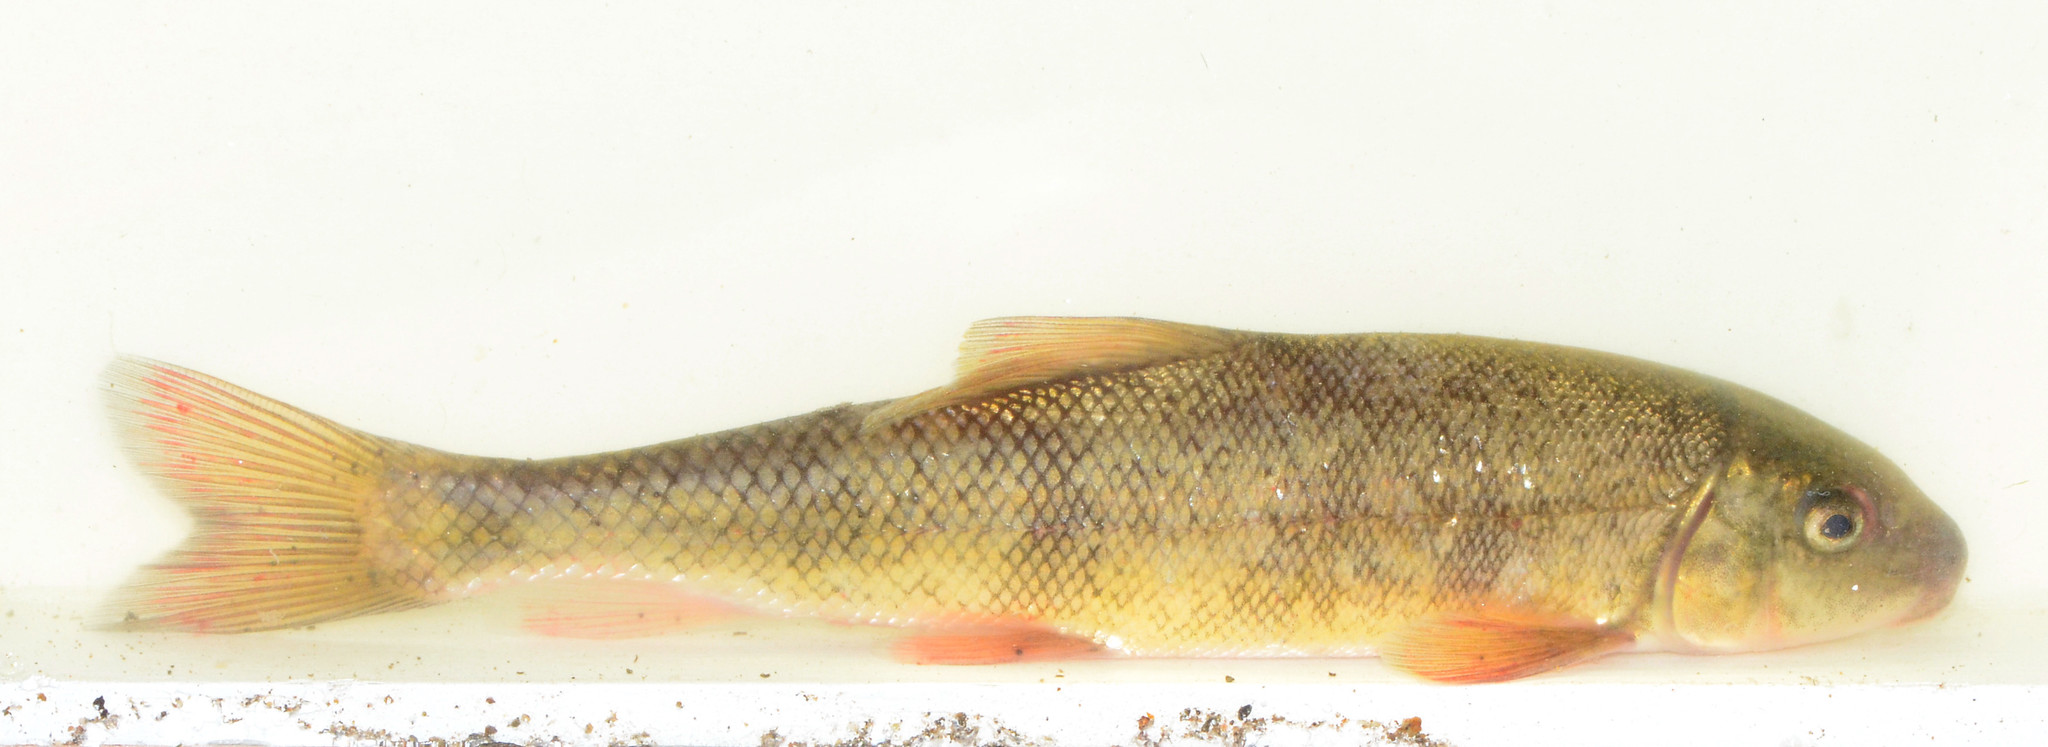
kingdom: Animalia
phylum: Chordata
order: Cypriniformes
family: Catostomidae
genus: Catostomus
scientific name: Catostomus occidentalis
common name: Goose lake sucker
